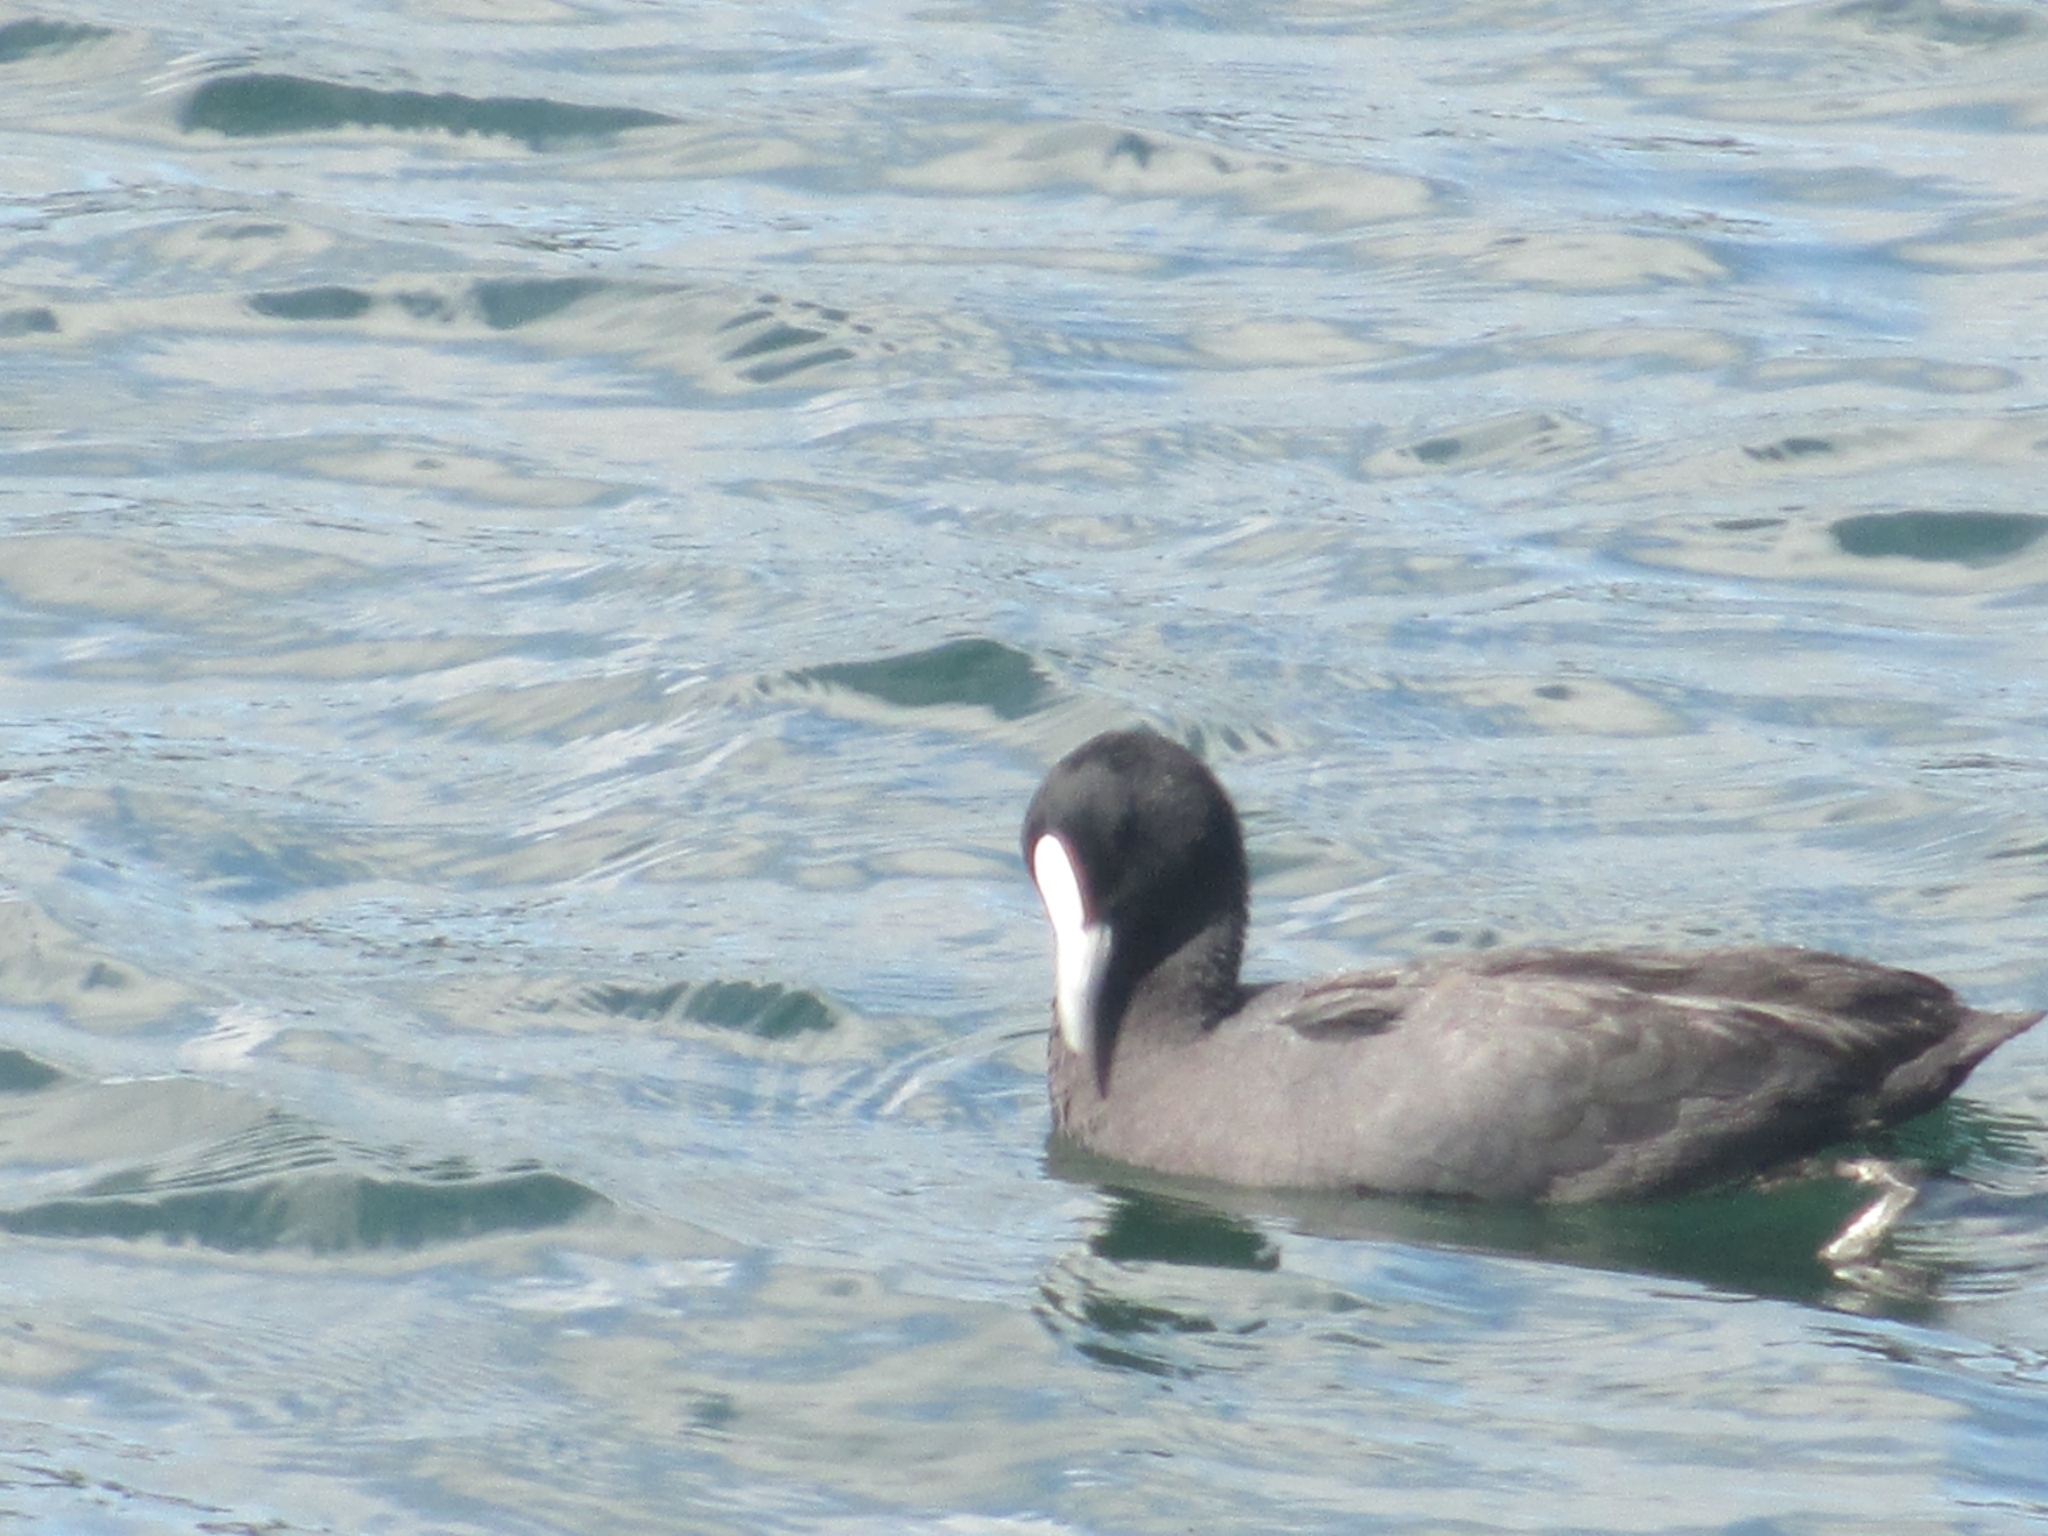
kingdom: Animalia
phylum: Chordata
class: Aves
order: Gruiformes
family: Rallidae
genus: Fulica
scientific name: Fulica atra
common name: Eurasian coot
